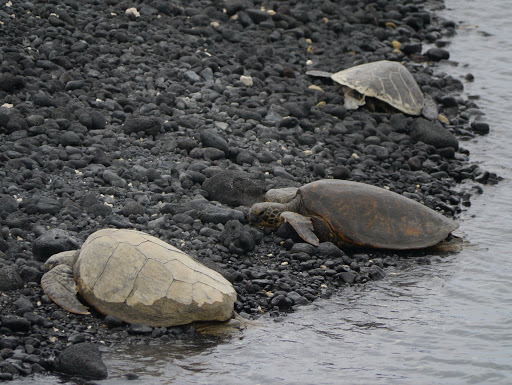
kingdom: Animalia
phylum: Chordata
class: Testudines
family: Cheloniidae
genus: Chelonia
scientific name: Chelonia mydas
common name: Green turtle
